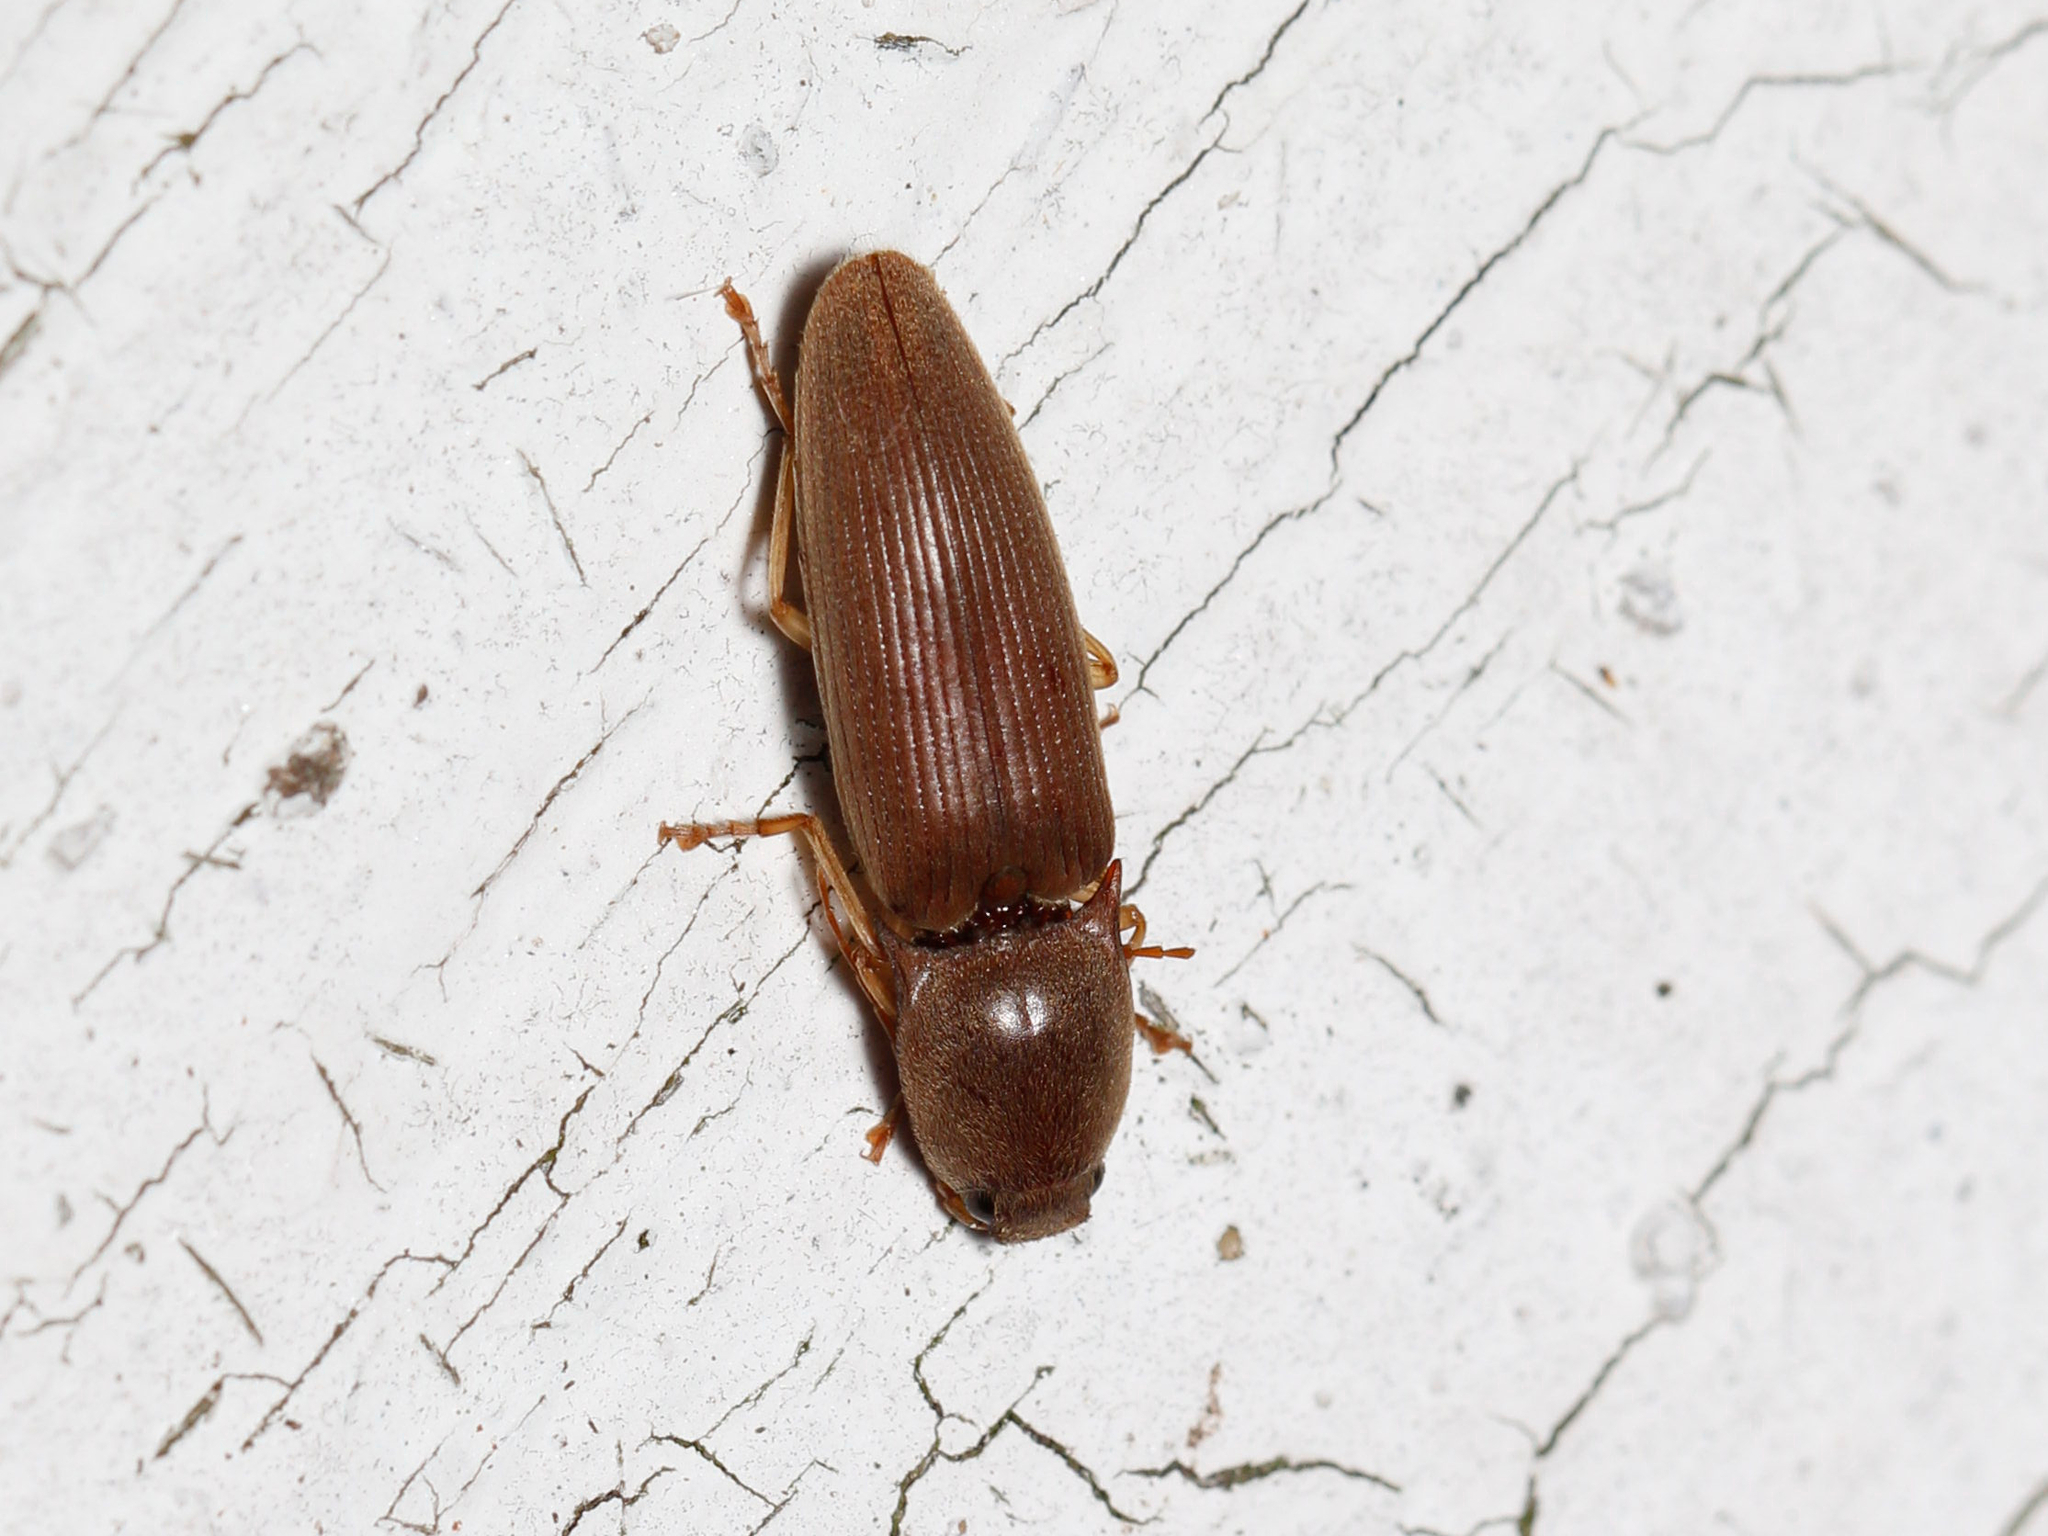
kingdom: Animalia
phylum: Arthropoda
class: Insecta
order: Coleoptera
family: Elateridae
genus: Monocrepidius
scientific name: Monocrepidius lividus
